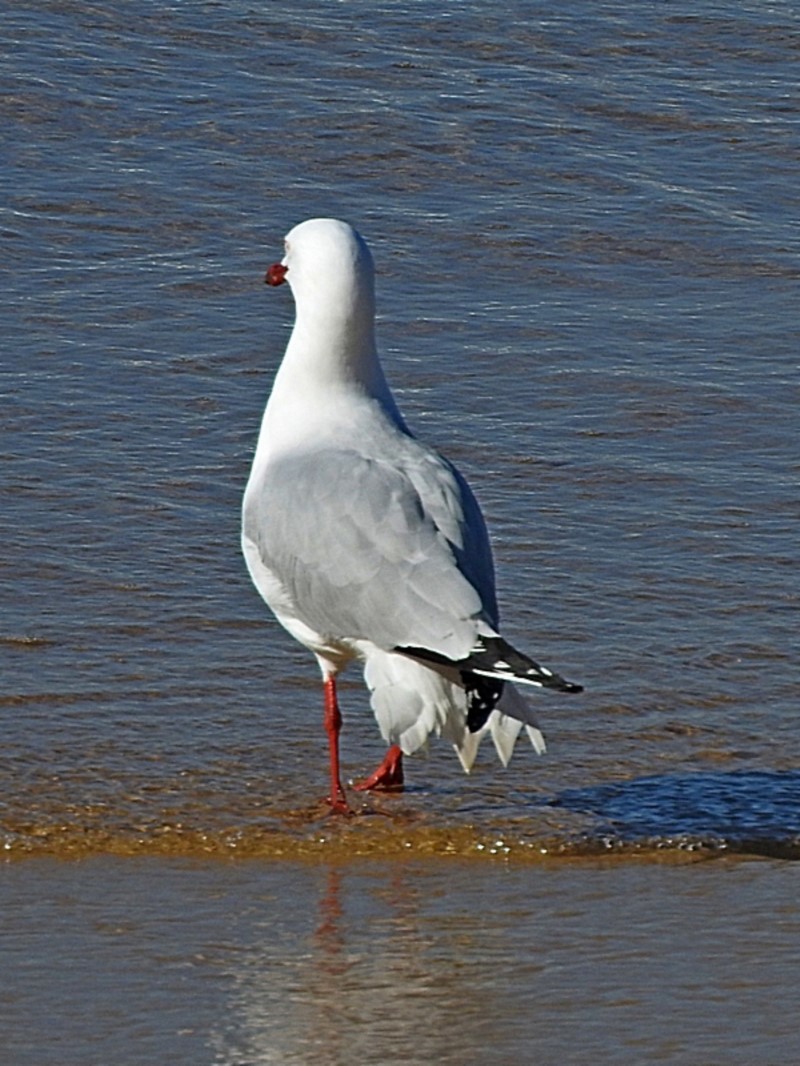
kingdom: Animalia
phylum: Chordata
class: Aves
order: Charadriiformes
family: Laridae
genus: Chroicocephalus
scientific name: Chroicocephalus novaehollandiae
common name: Silver gull
